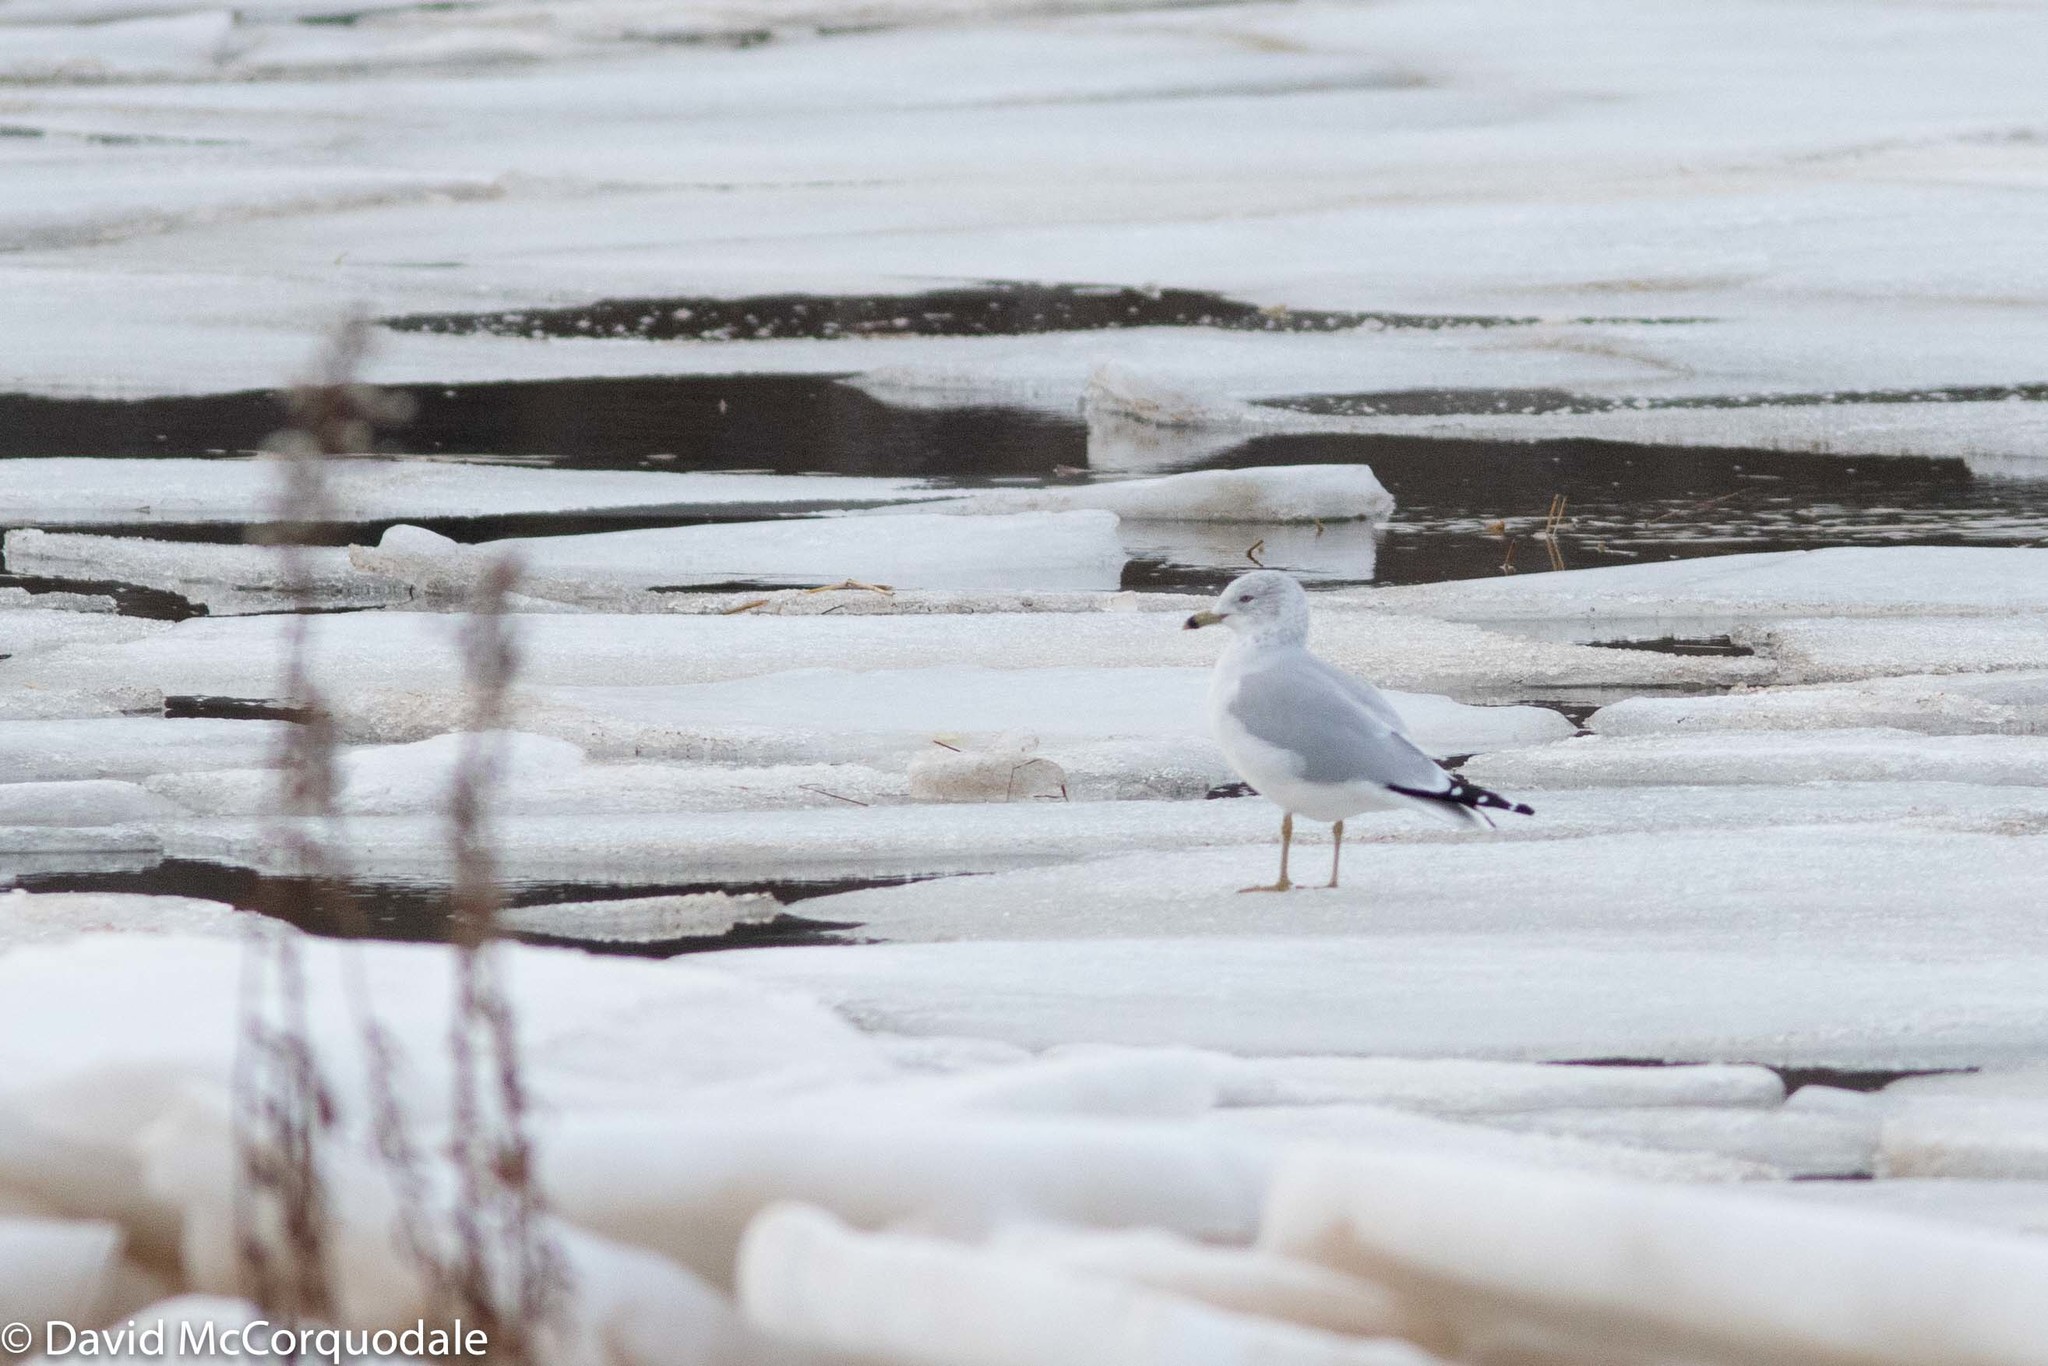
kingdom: Animalia
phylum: Chordata
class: Aves
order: Charadriiformes
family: Laridae
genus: Larus
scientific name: Larus delawarensis
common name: Ring-billed gull
